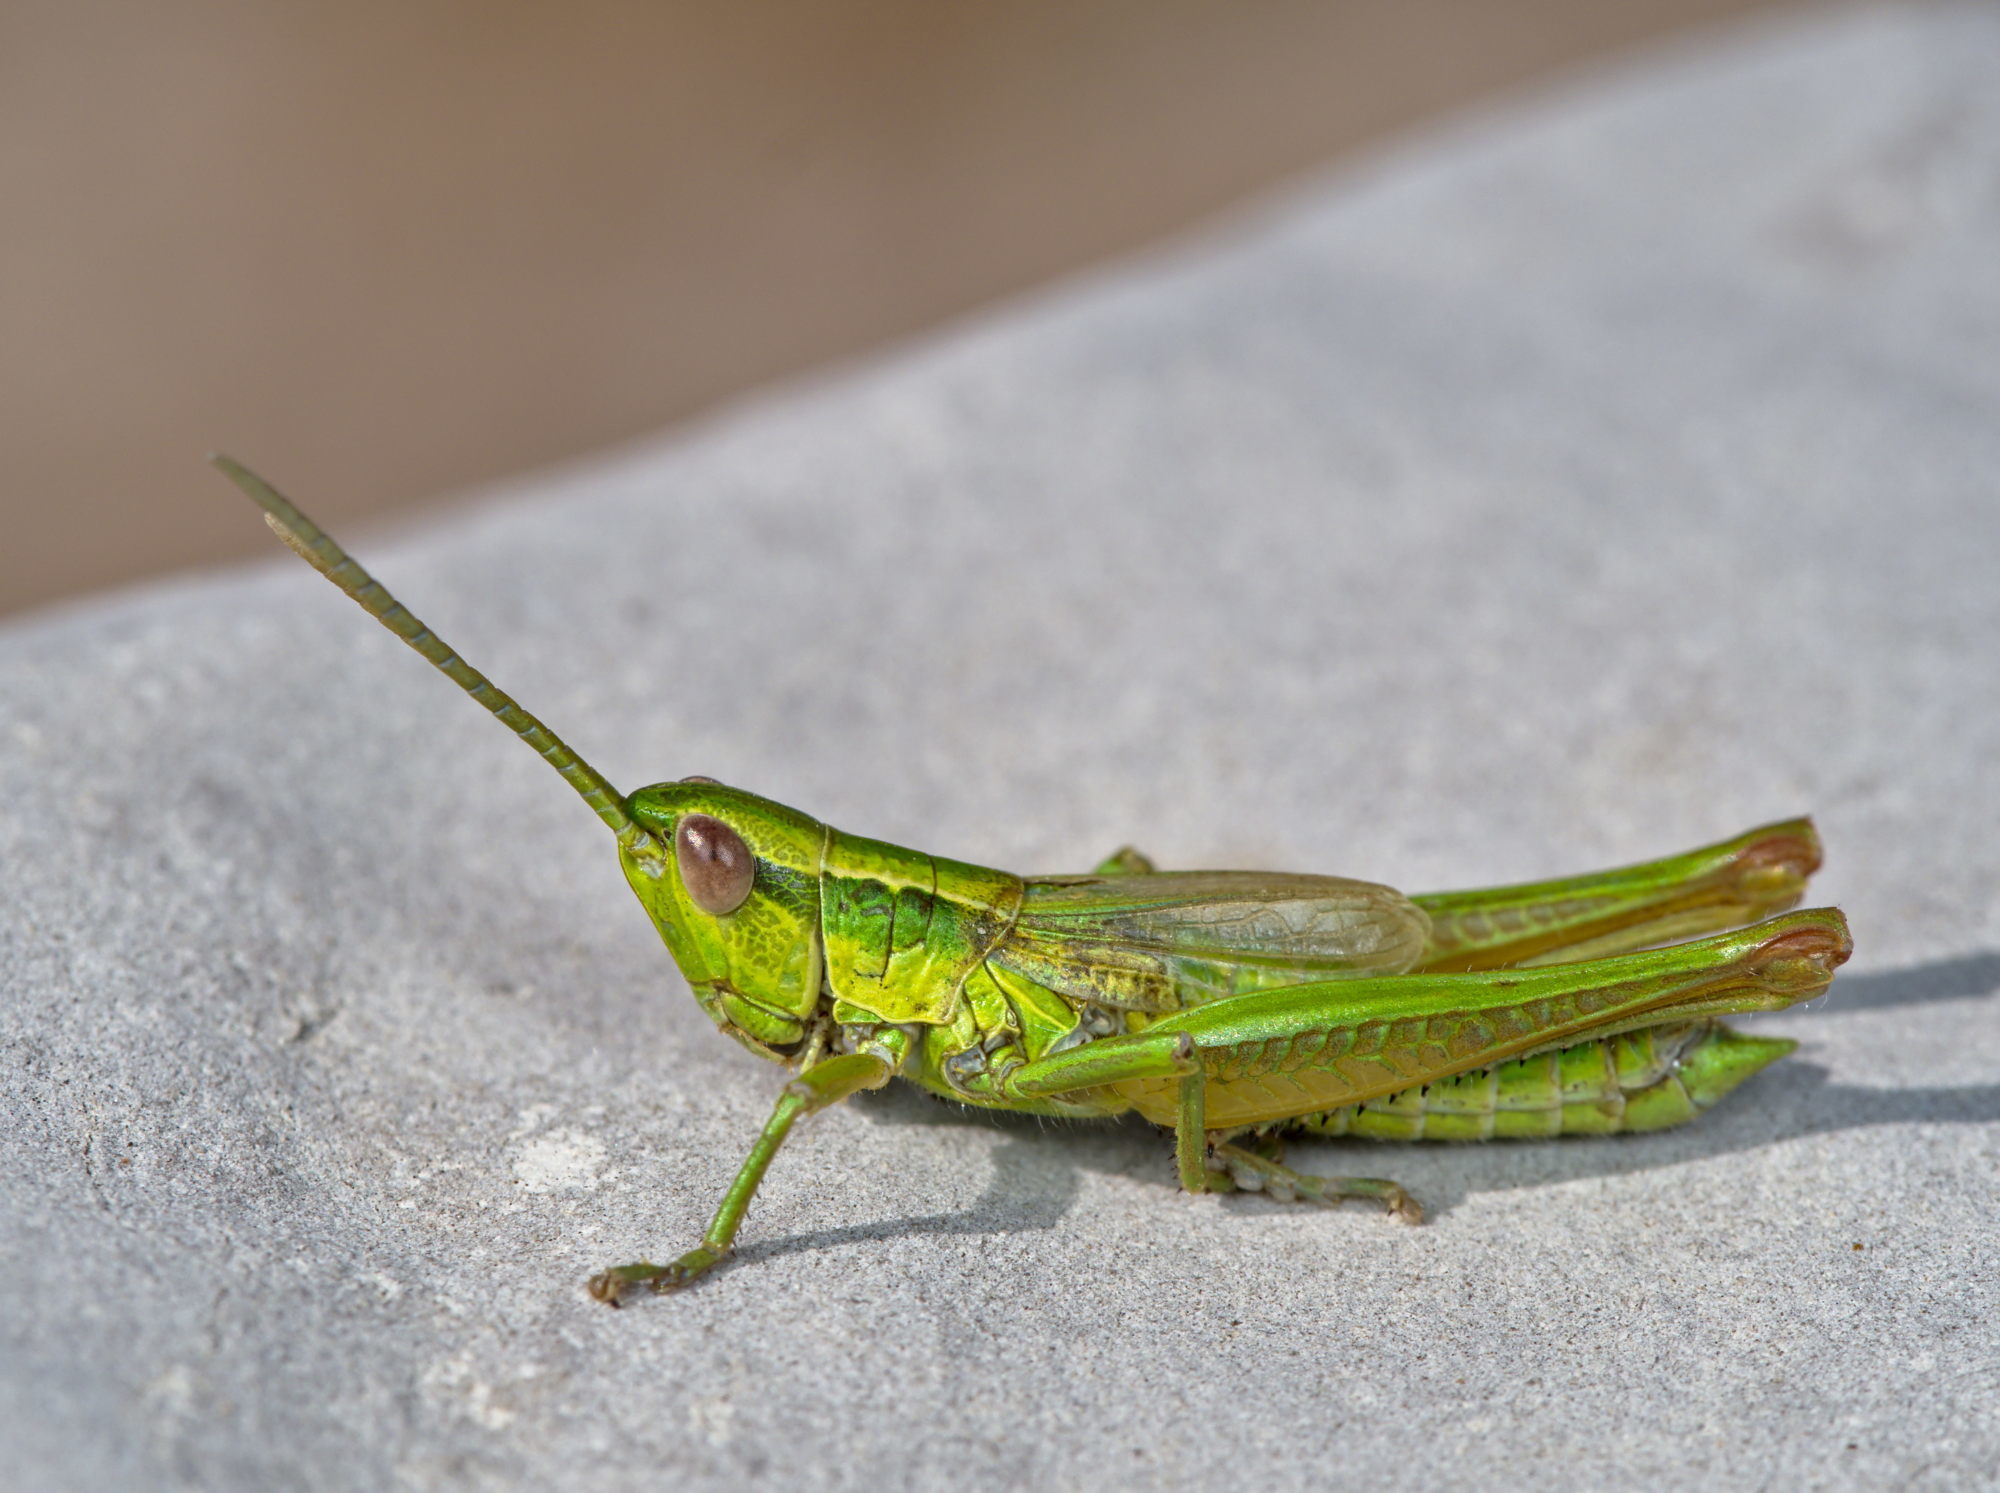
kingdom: Animalia
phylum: Arthropoda
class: Insecta
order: Orthoptera
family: Acrididae
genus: Euthystira
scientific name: Euthystira brachyptera
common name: Small gold grasshopper
